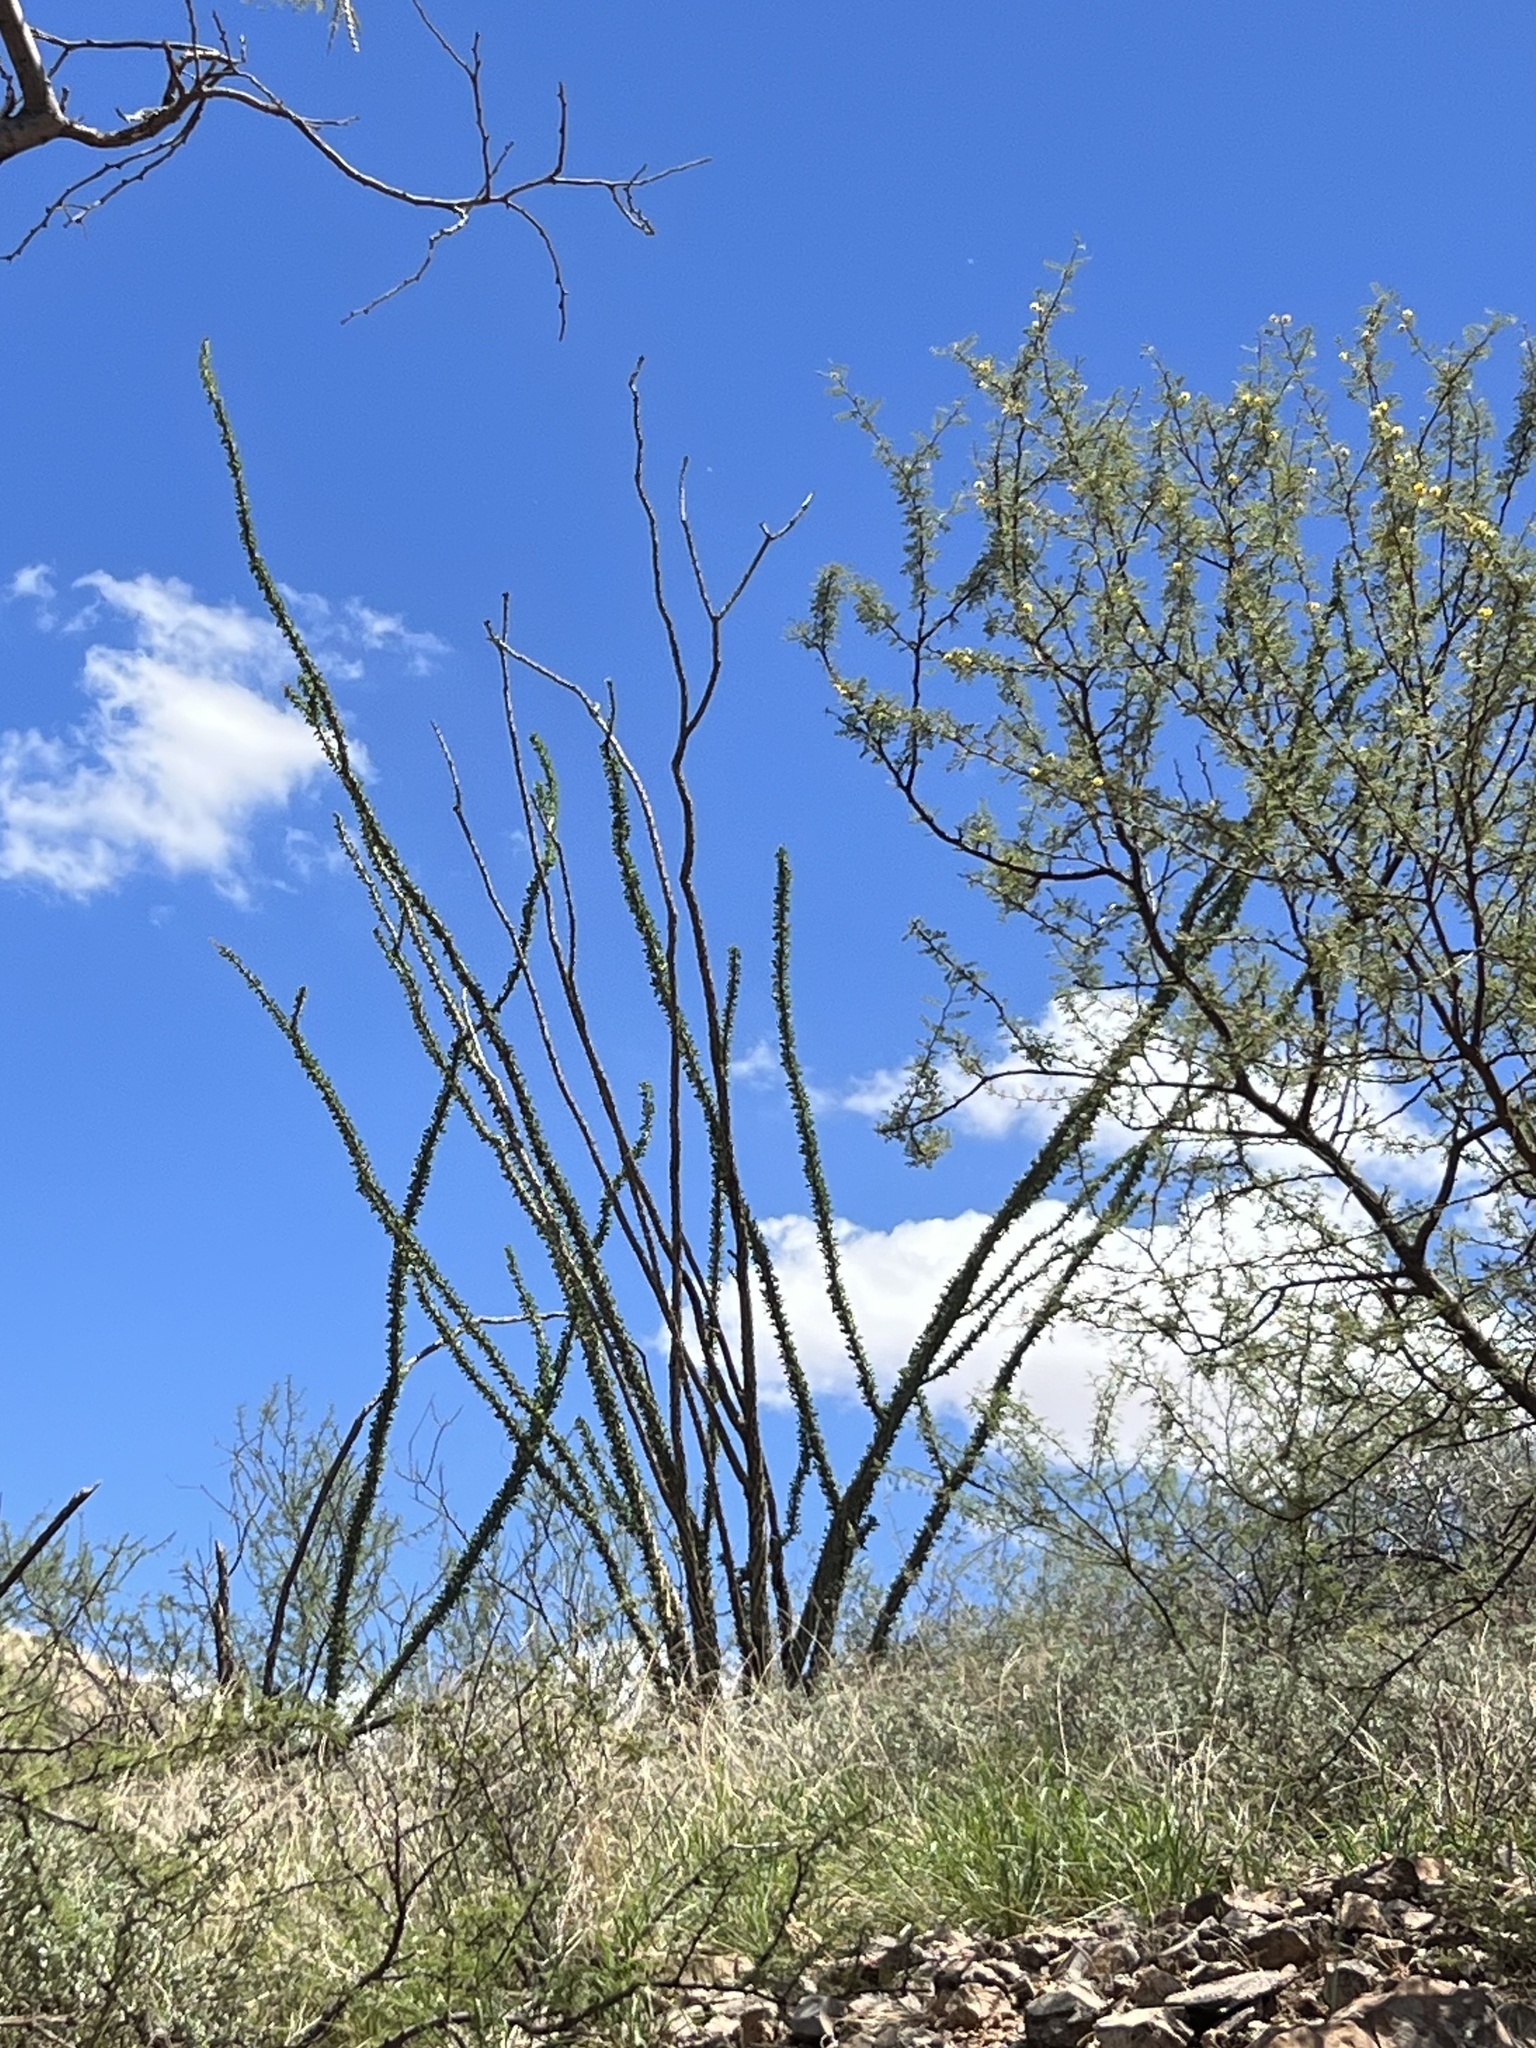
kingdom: Plantae
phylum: Tracheophyta
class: Magnoliopsida
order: Ericales
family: Fouquieriaceae
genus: Fouquieria
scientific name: Fouquieria splendens
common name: Vine-cactus
